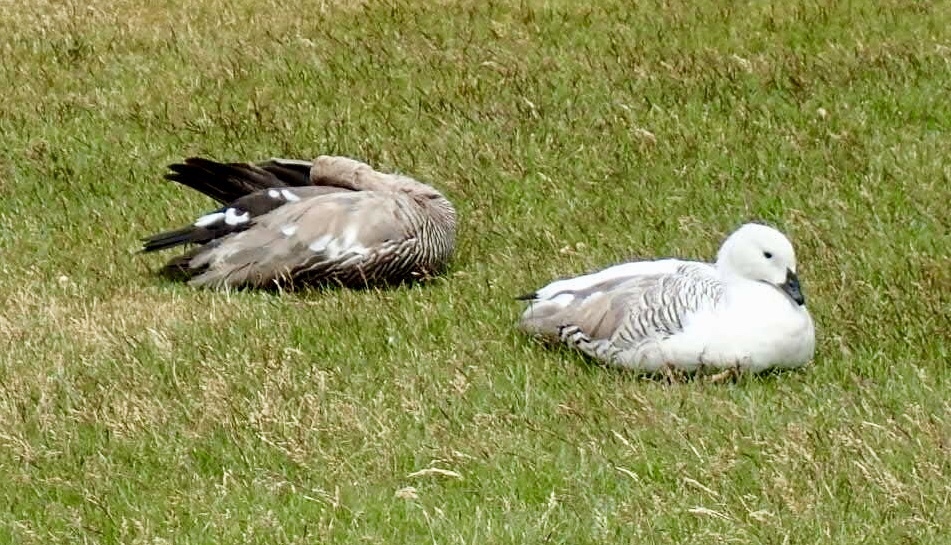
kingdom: Animalia
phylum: Chordata
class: Aves
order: Anseriformes
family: Anatidae
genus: Chloephaga
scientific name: Chloephaga picta
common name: Upland goose
